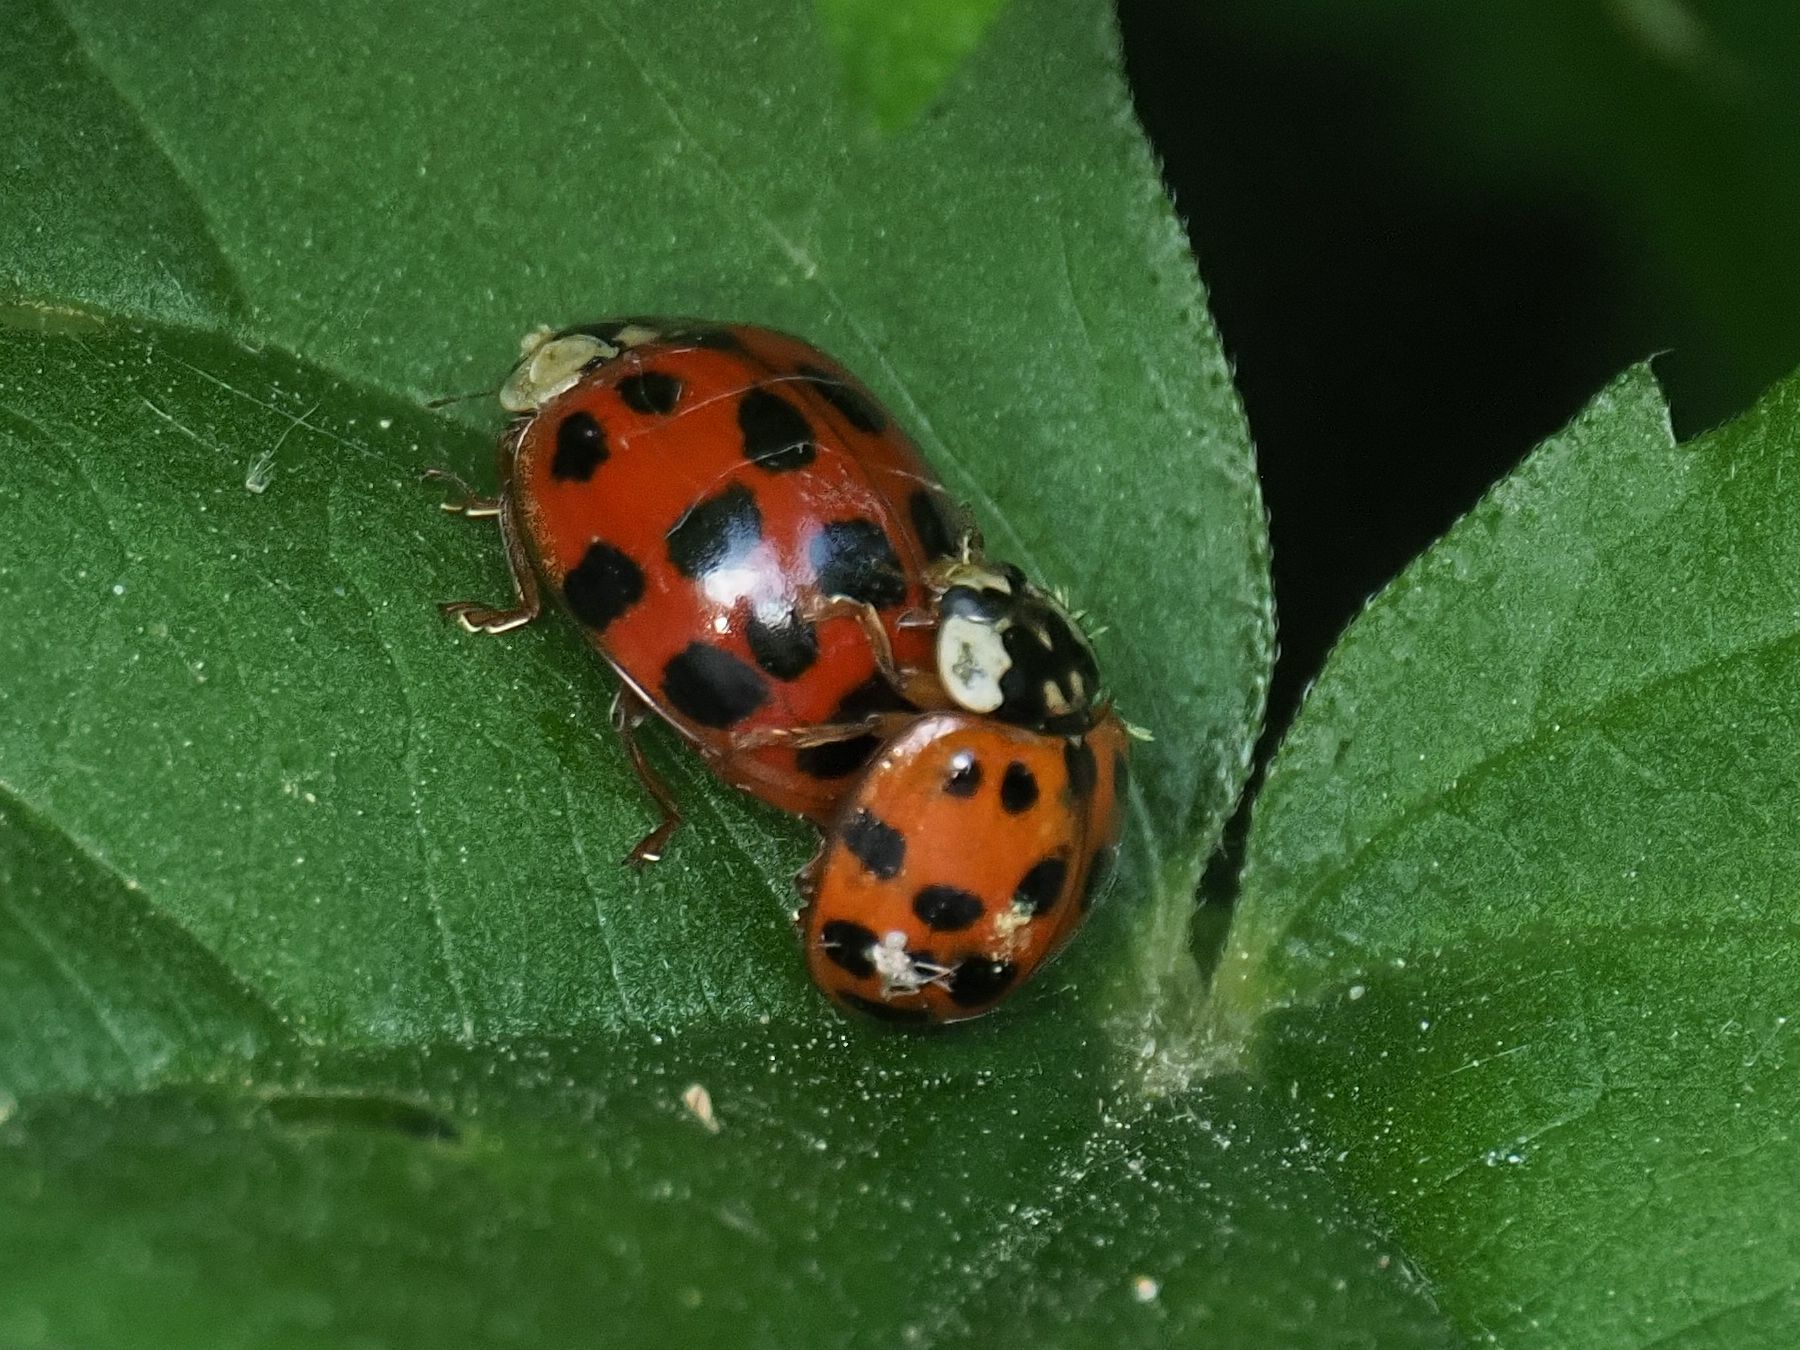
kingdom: Animalia
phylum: Arthropoda
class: Insecta
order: Coleoptera
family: Coccinellidae
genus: Harmonia
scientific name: Harmonia axyridis
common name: Harlequin ladybird
